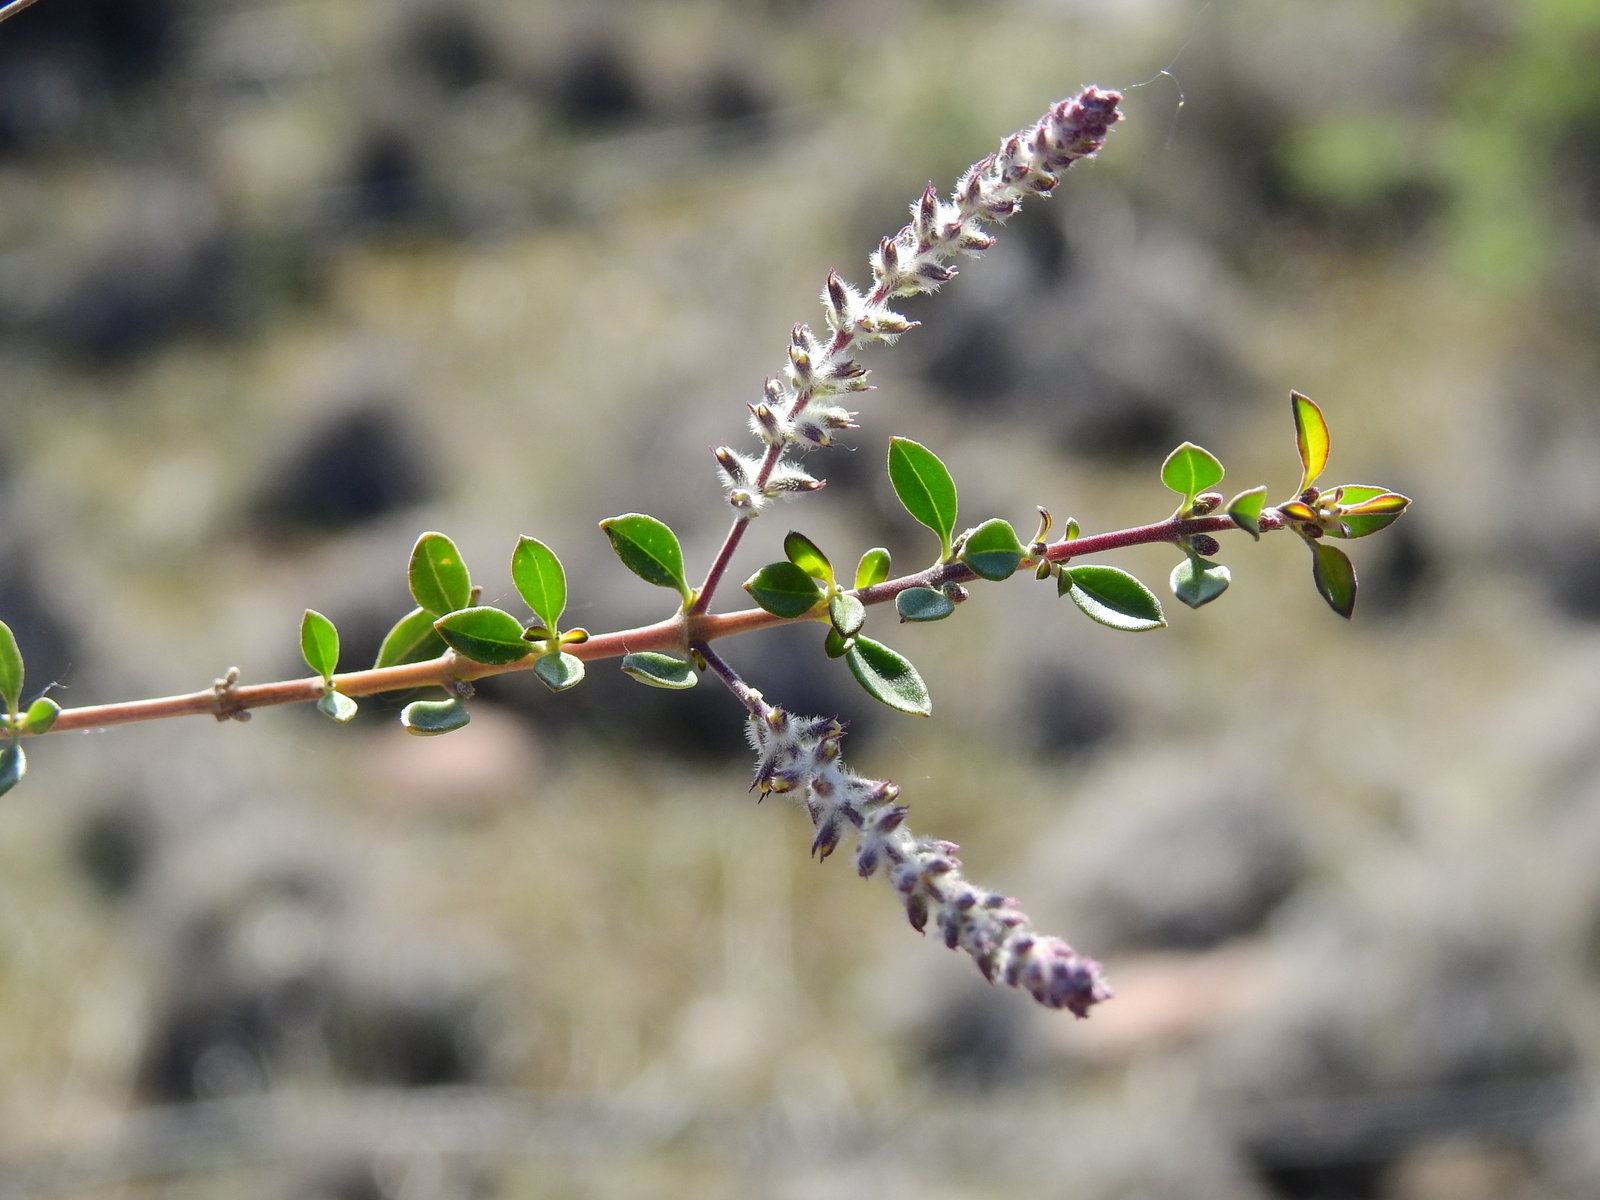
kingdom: Plantae
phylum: Tracheophyta
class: Magnoliopsida
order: Lamiales
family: Verbenaceae
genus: Aloysia
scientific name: Aloysia gratissima
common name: Common bee-brush
